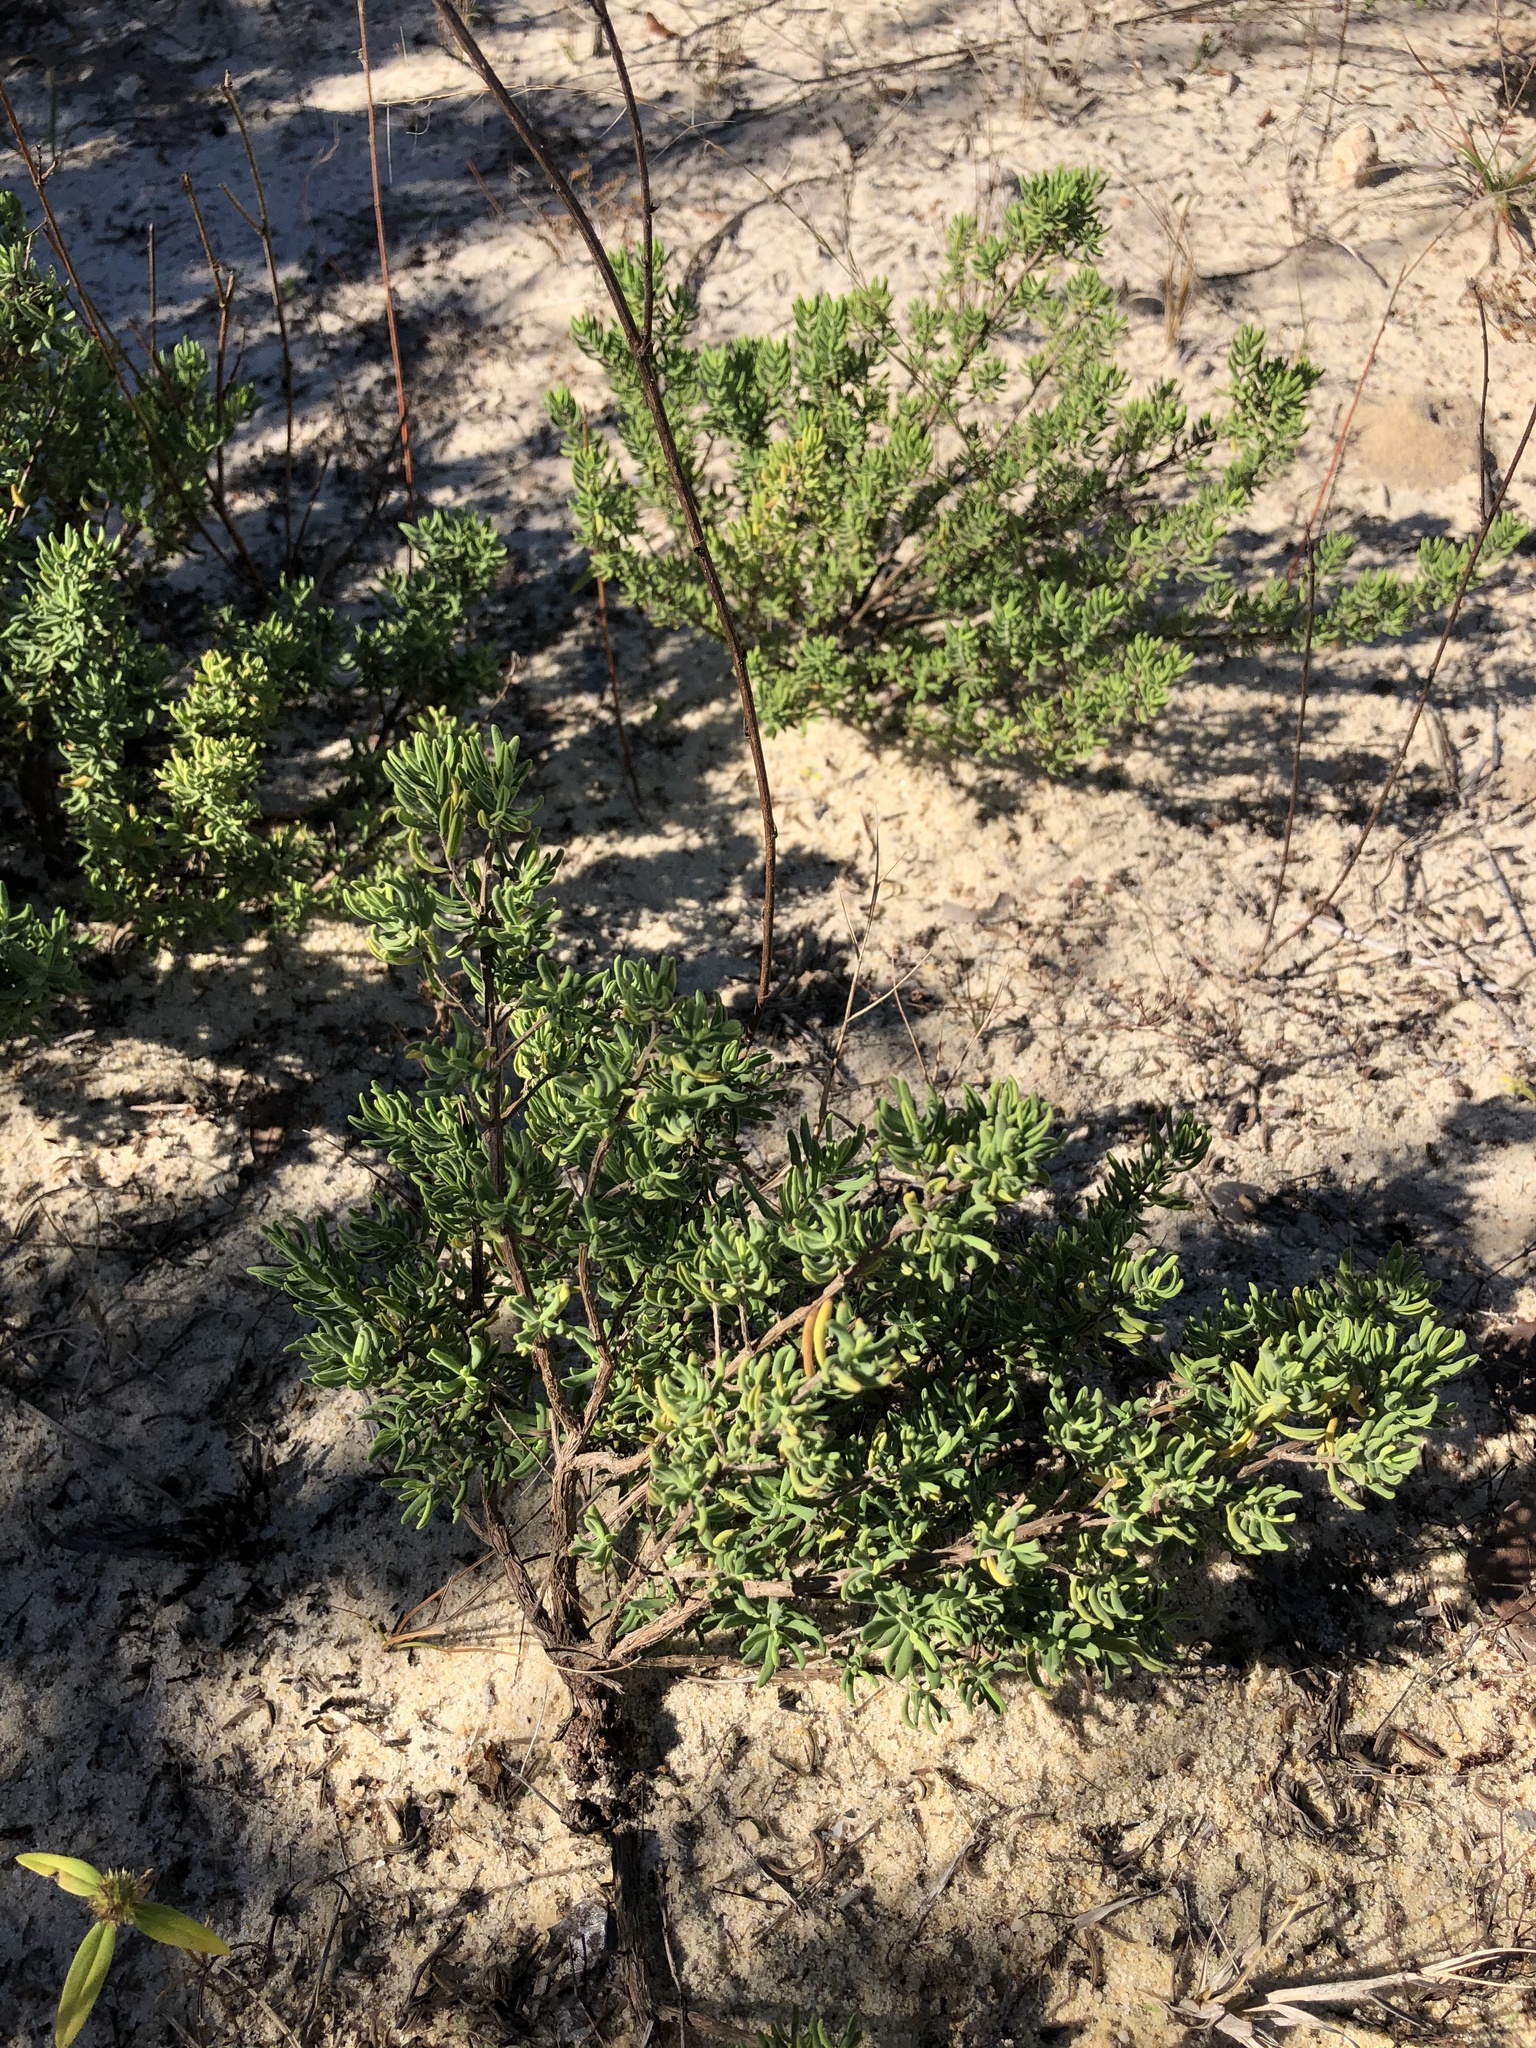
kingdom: Plantae
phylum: Tracheophyta
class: Magnoliopsida
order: Lamiales
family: Lamiaceae
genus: Clinopodium
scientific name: Clinopodium ashei
